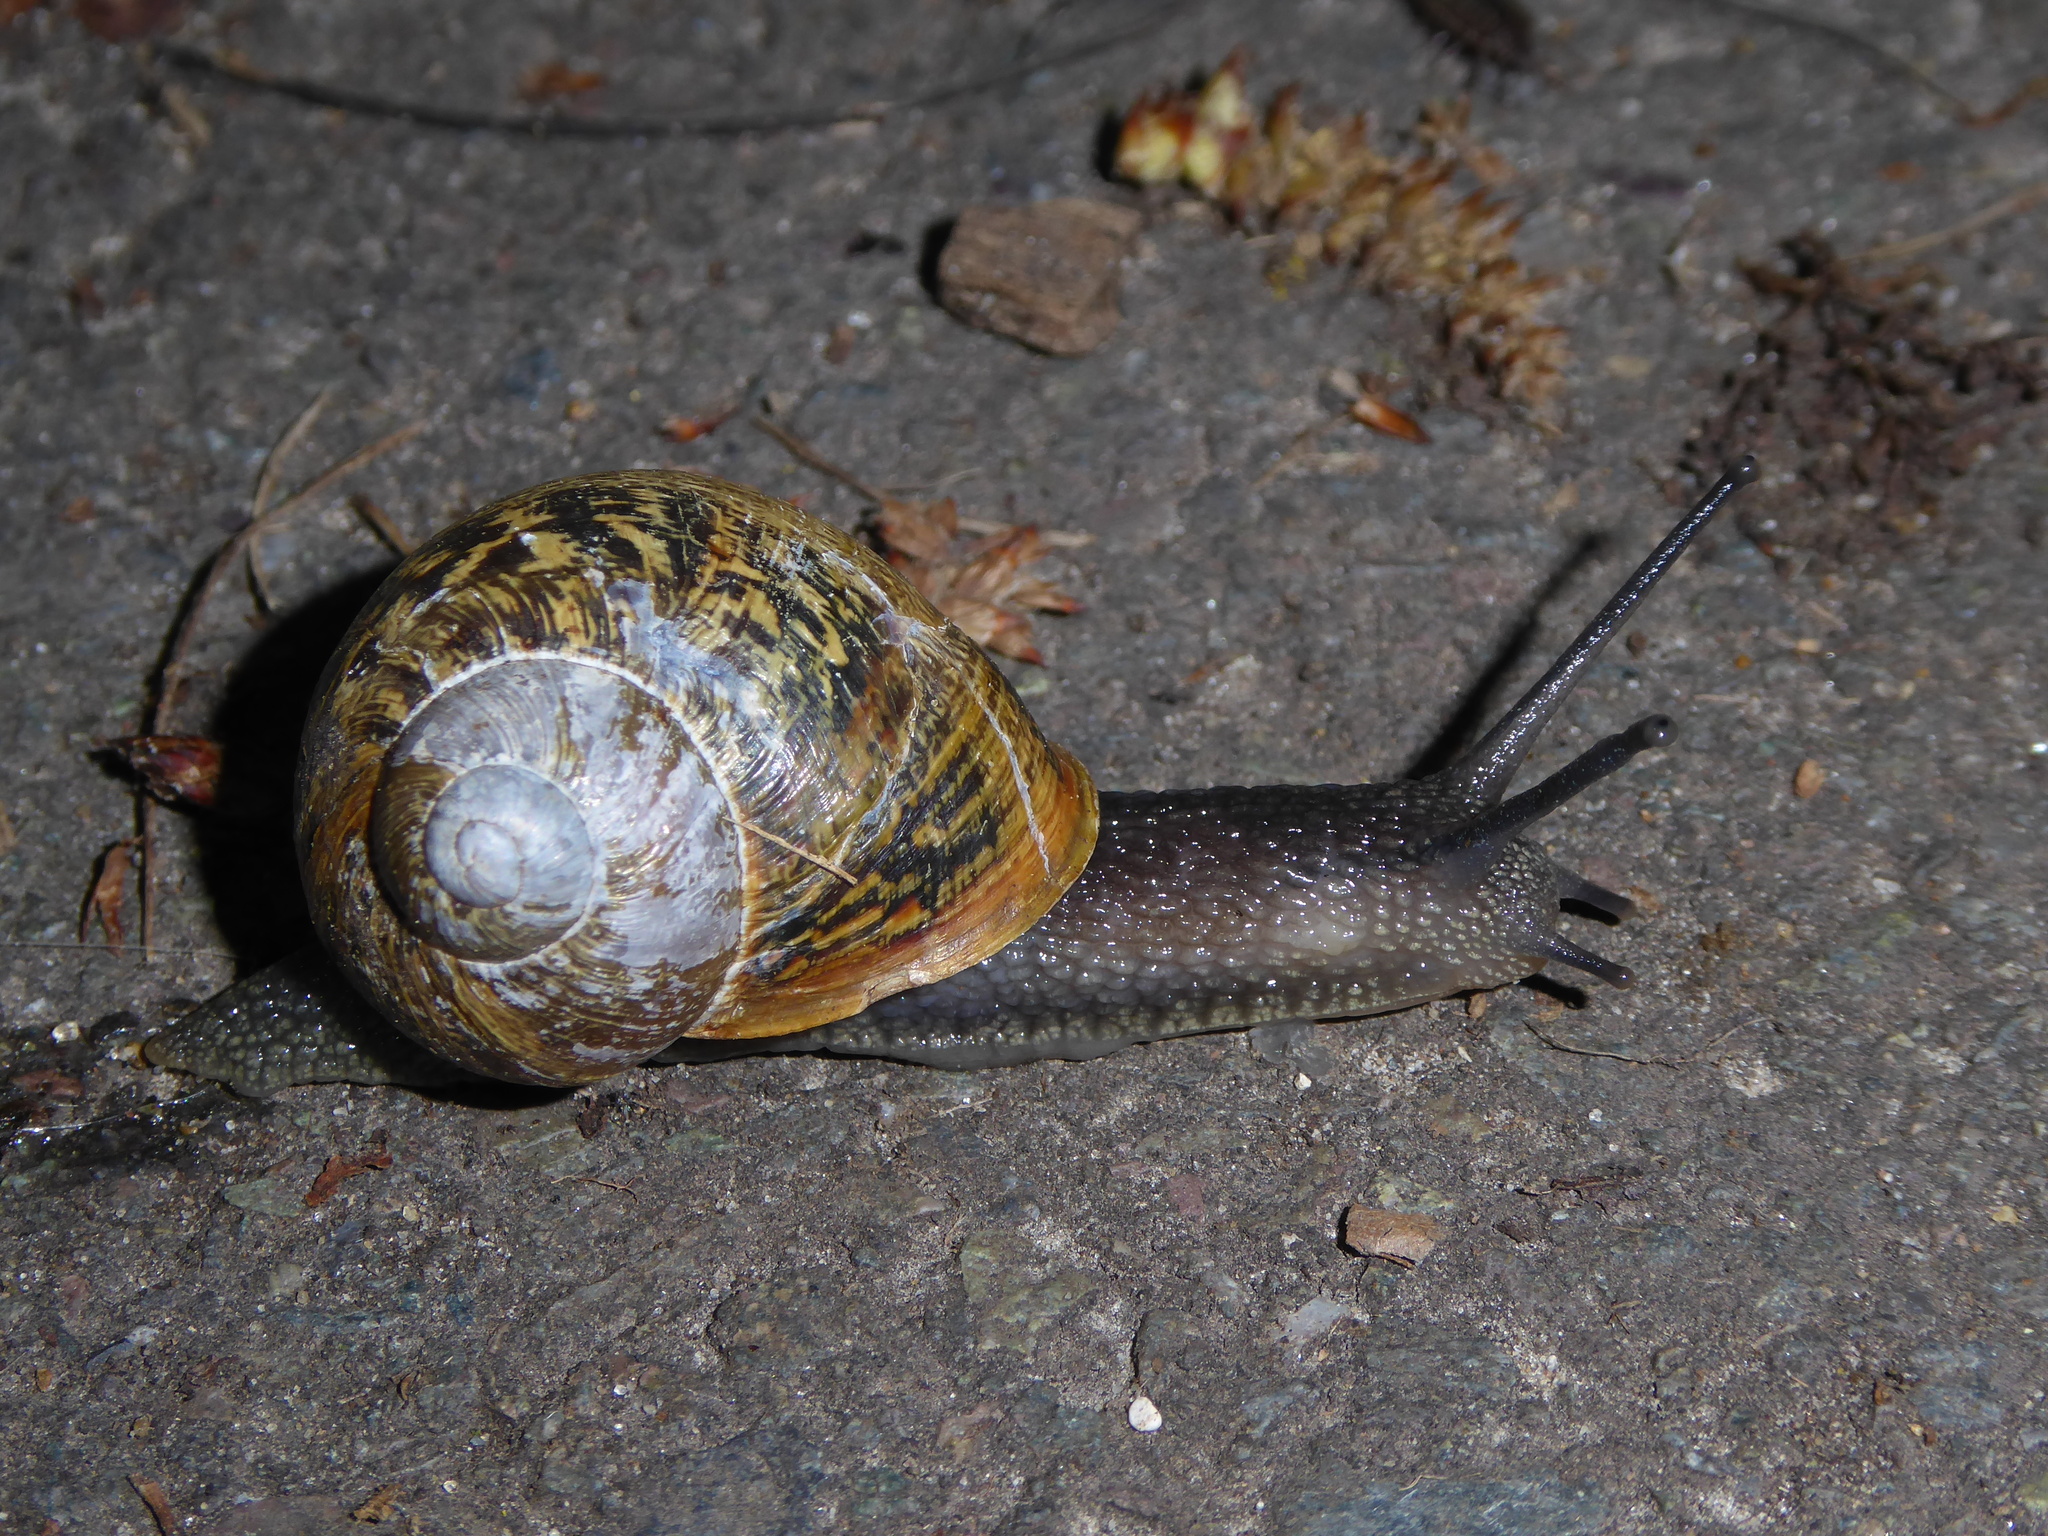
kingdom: Animalia
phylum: Mollusca
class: Gastropoda
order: Stylommatophora
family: Helicidae
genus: Cornu
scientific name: Cornu aspersum
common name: Brown garden snail
